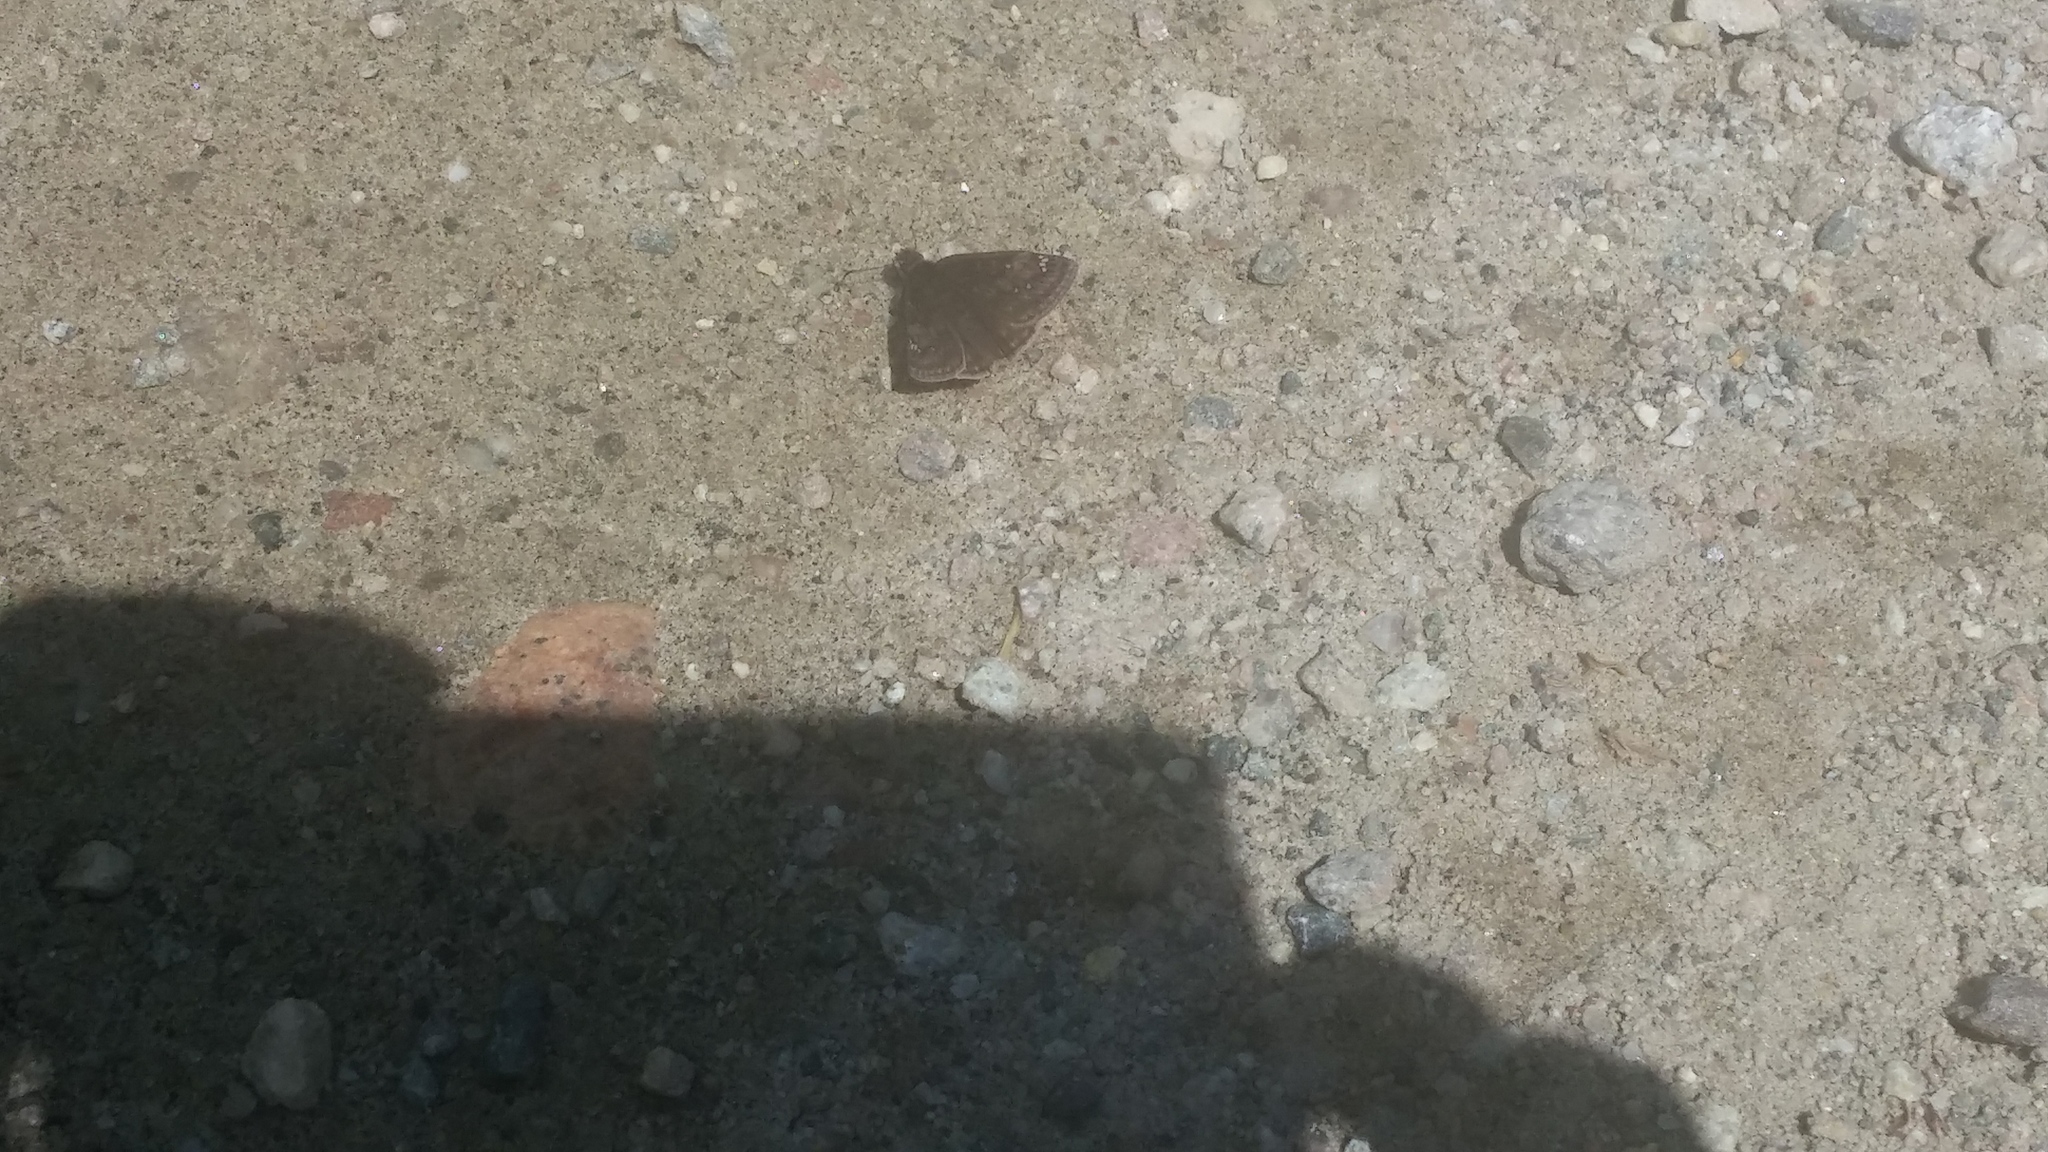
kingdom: Animalia
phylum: Arthropoda
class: Insecta
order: Lepidoptera
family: Hesperiidae
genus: Erynnis
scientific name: Erynnis juvenalis
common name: Juvenal's duskywing
